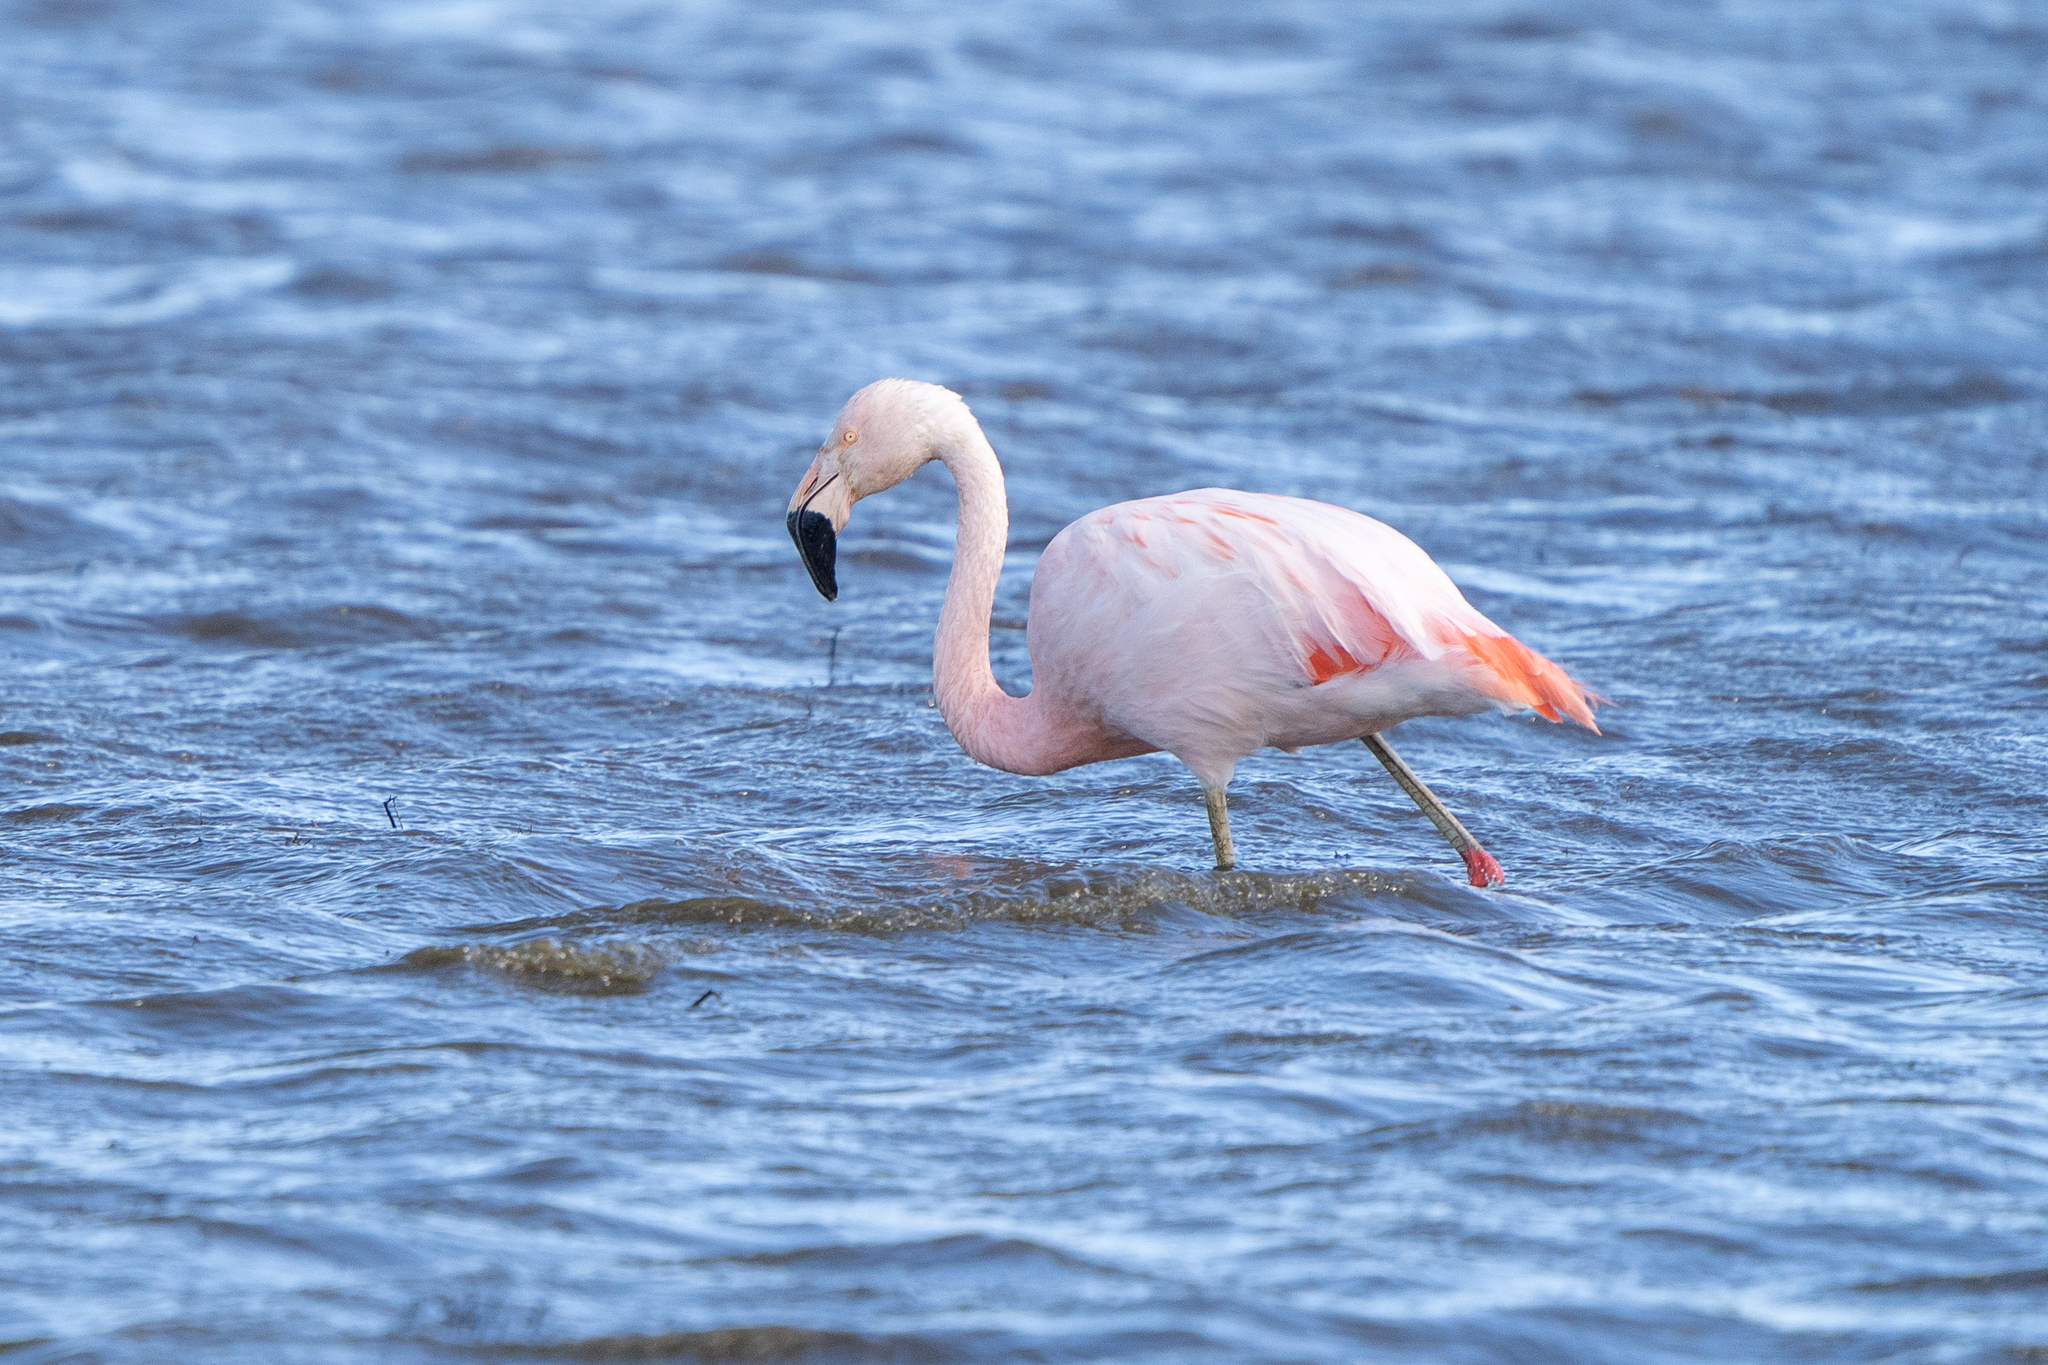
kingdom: Animalia
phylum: Chordata
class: Aves
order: Phoenicopteriformes
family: Phoenicopteridae
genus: Phoenicopterus
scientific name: Phoenicopterus chilensis
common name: Chilean flamingo
